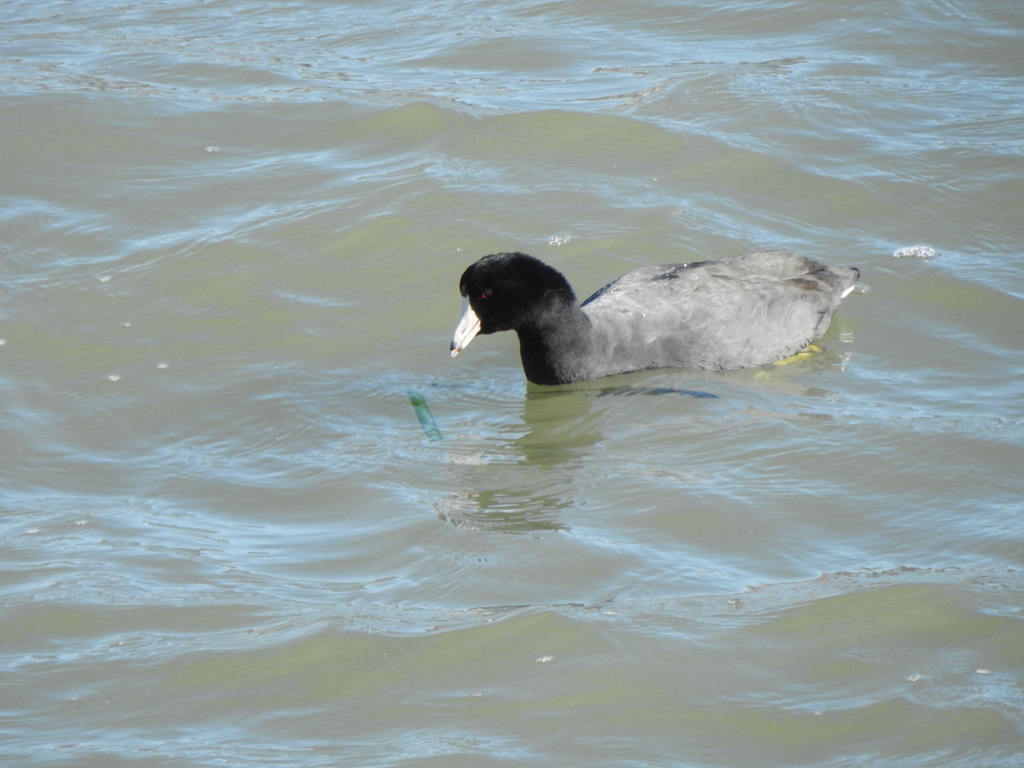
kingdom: Animalia
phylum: Chordata
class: Aves
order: Gruiformes
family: Rallidae
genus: Fulica
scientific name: Fulica americana
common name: American coot
